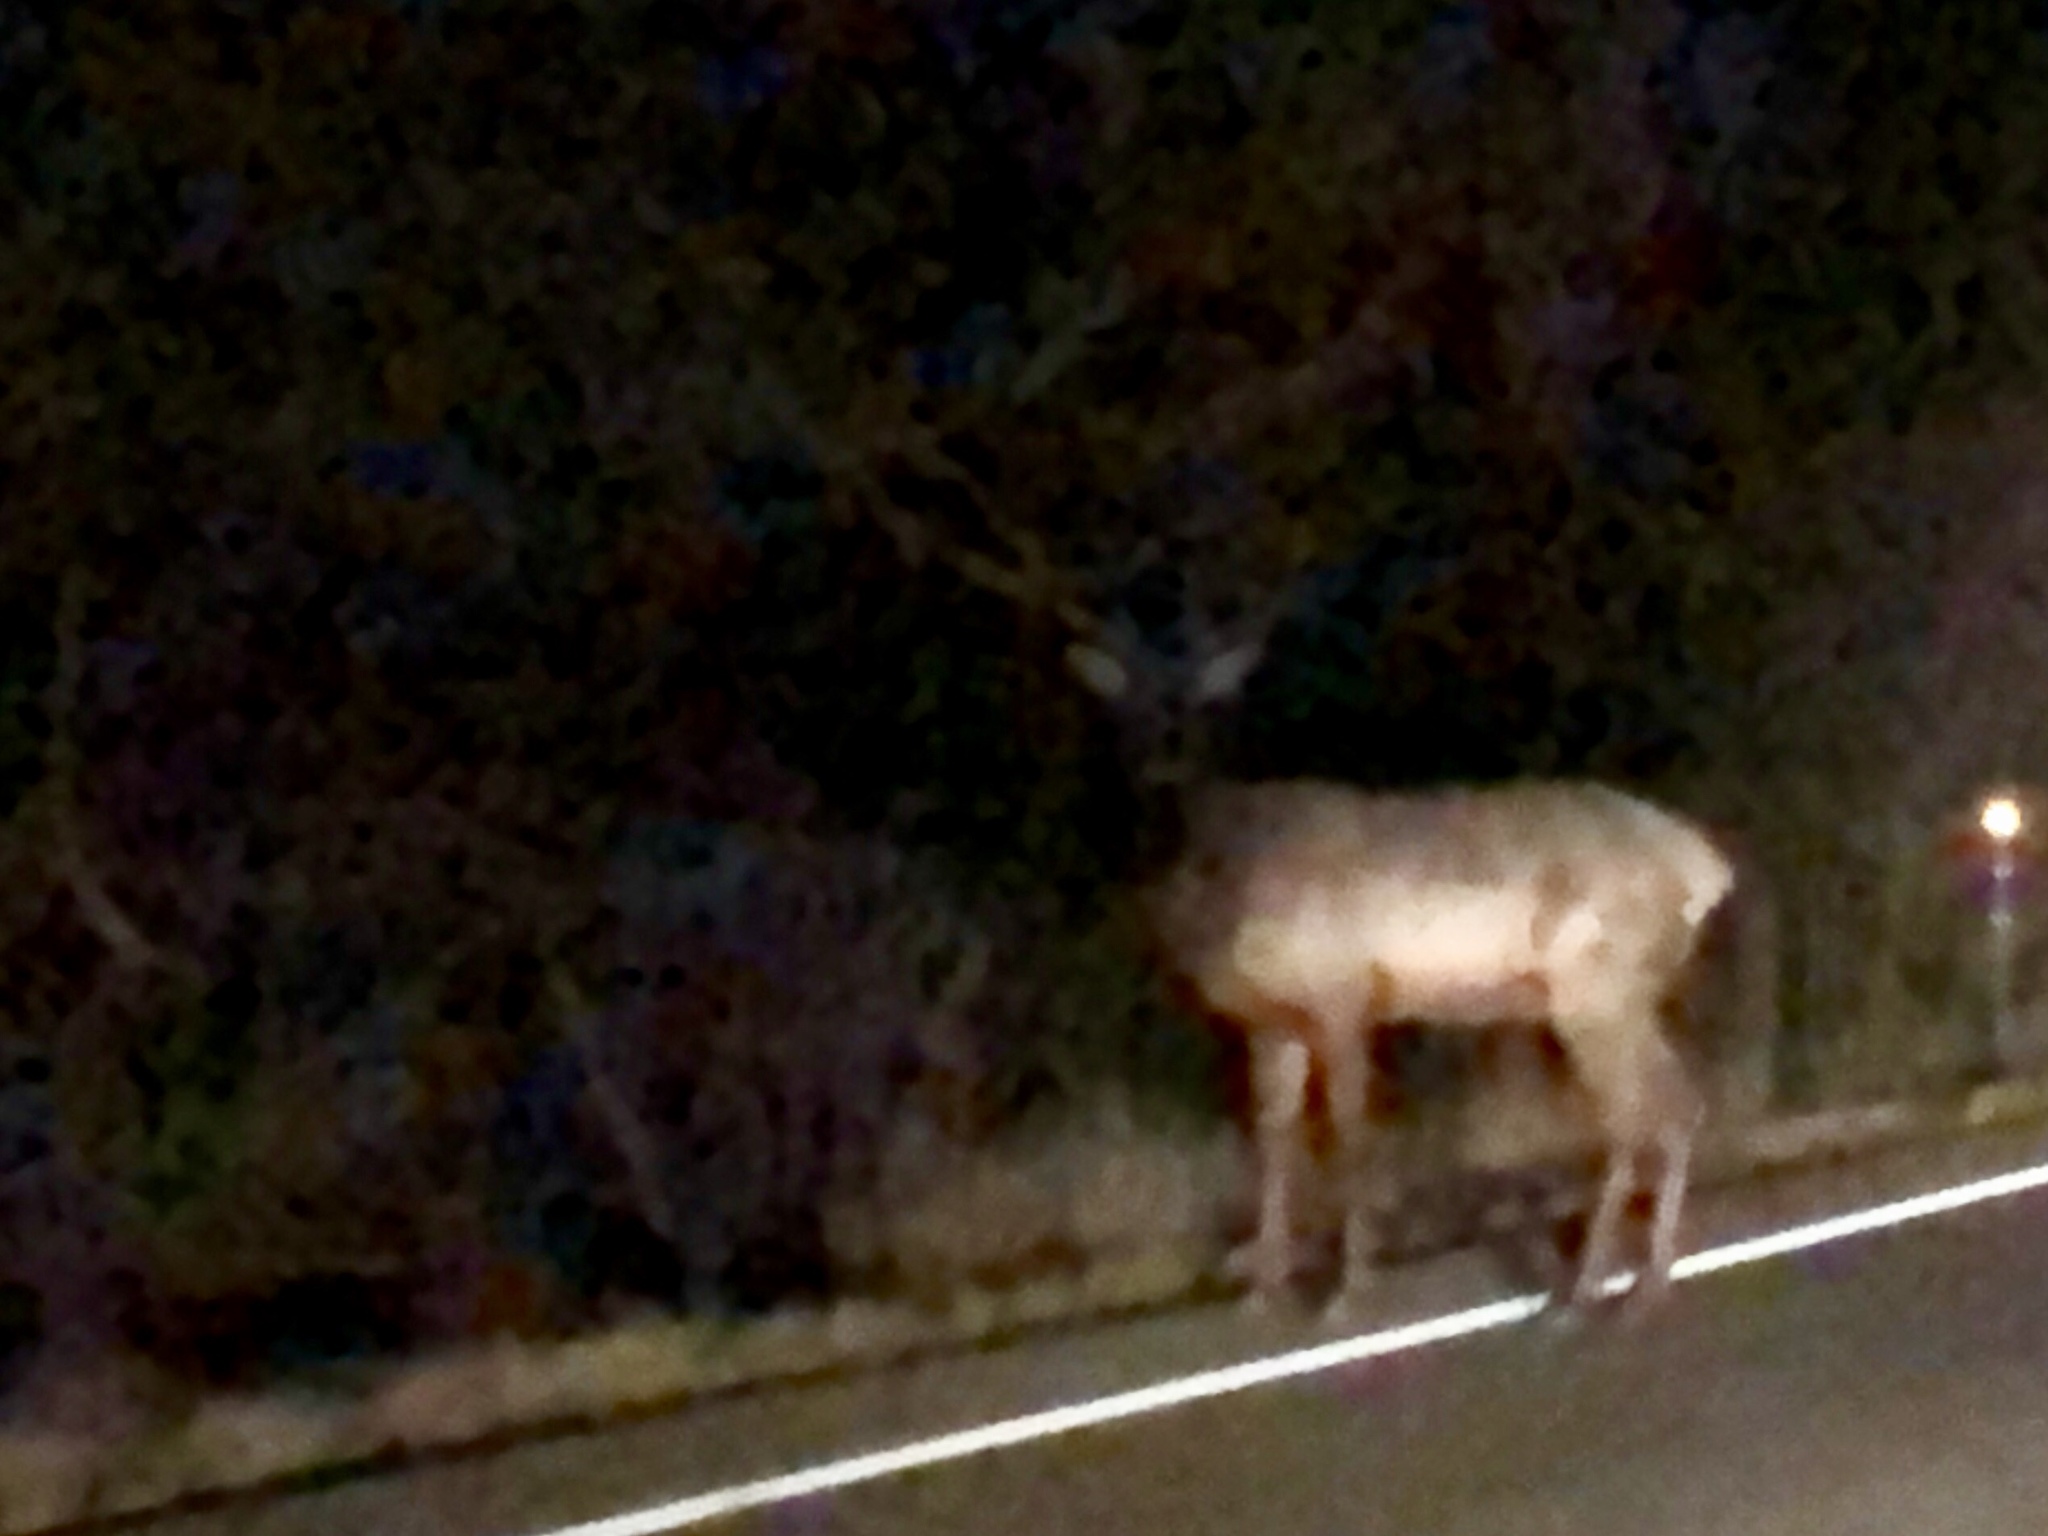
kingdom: Animalia
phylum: Chordata
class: Mammalia
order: Artiodactyla
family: Cervidae
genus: Cervus
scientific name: Cervus elaphus
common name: Red deer
